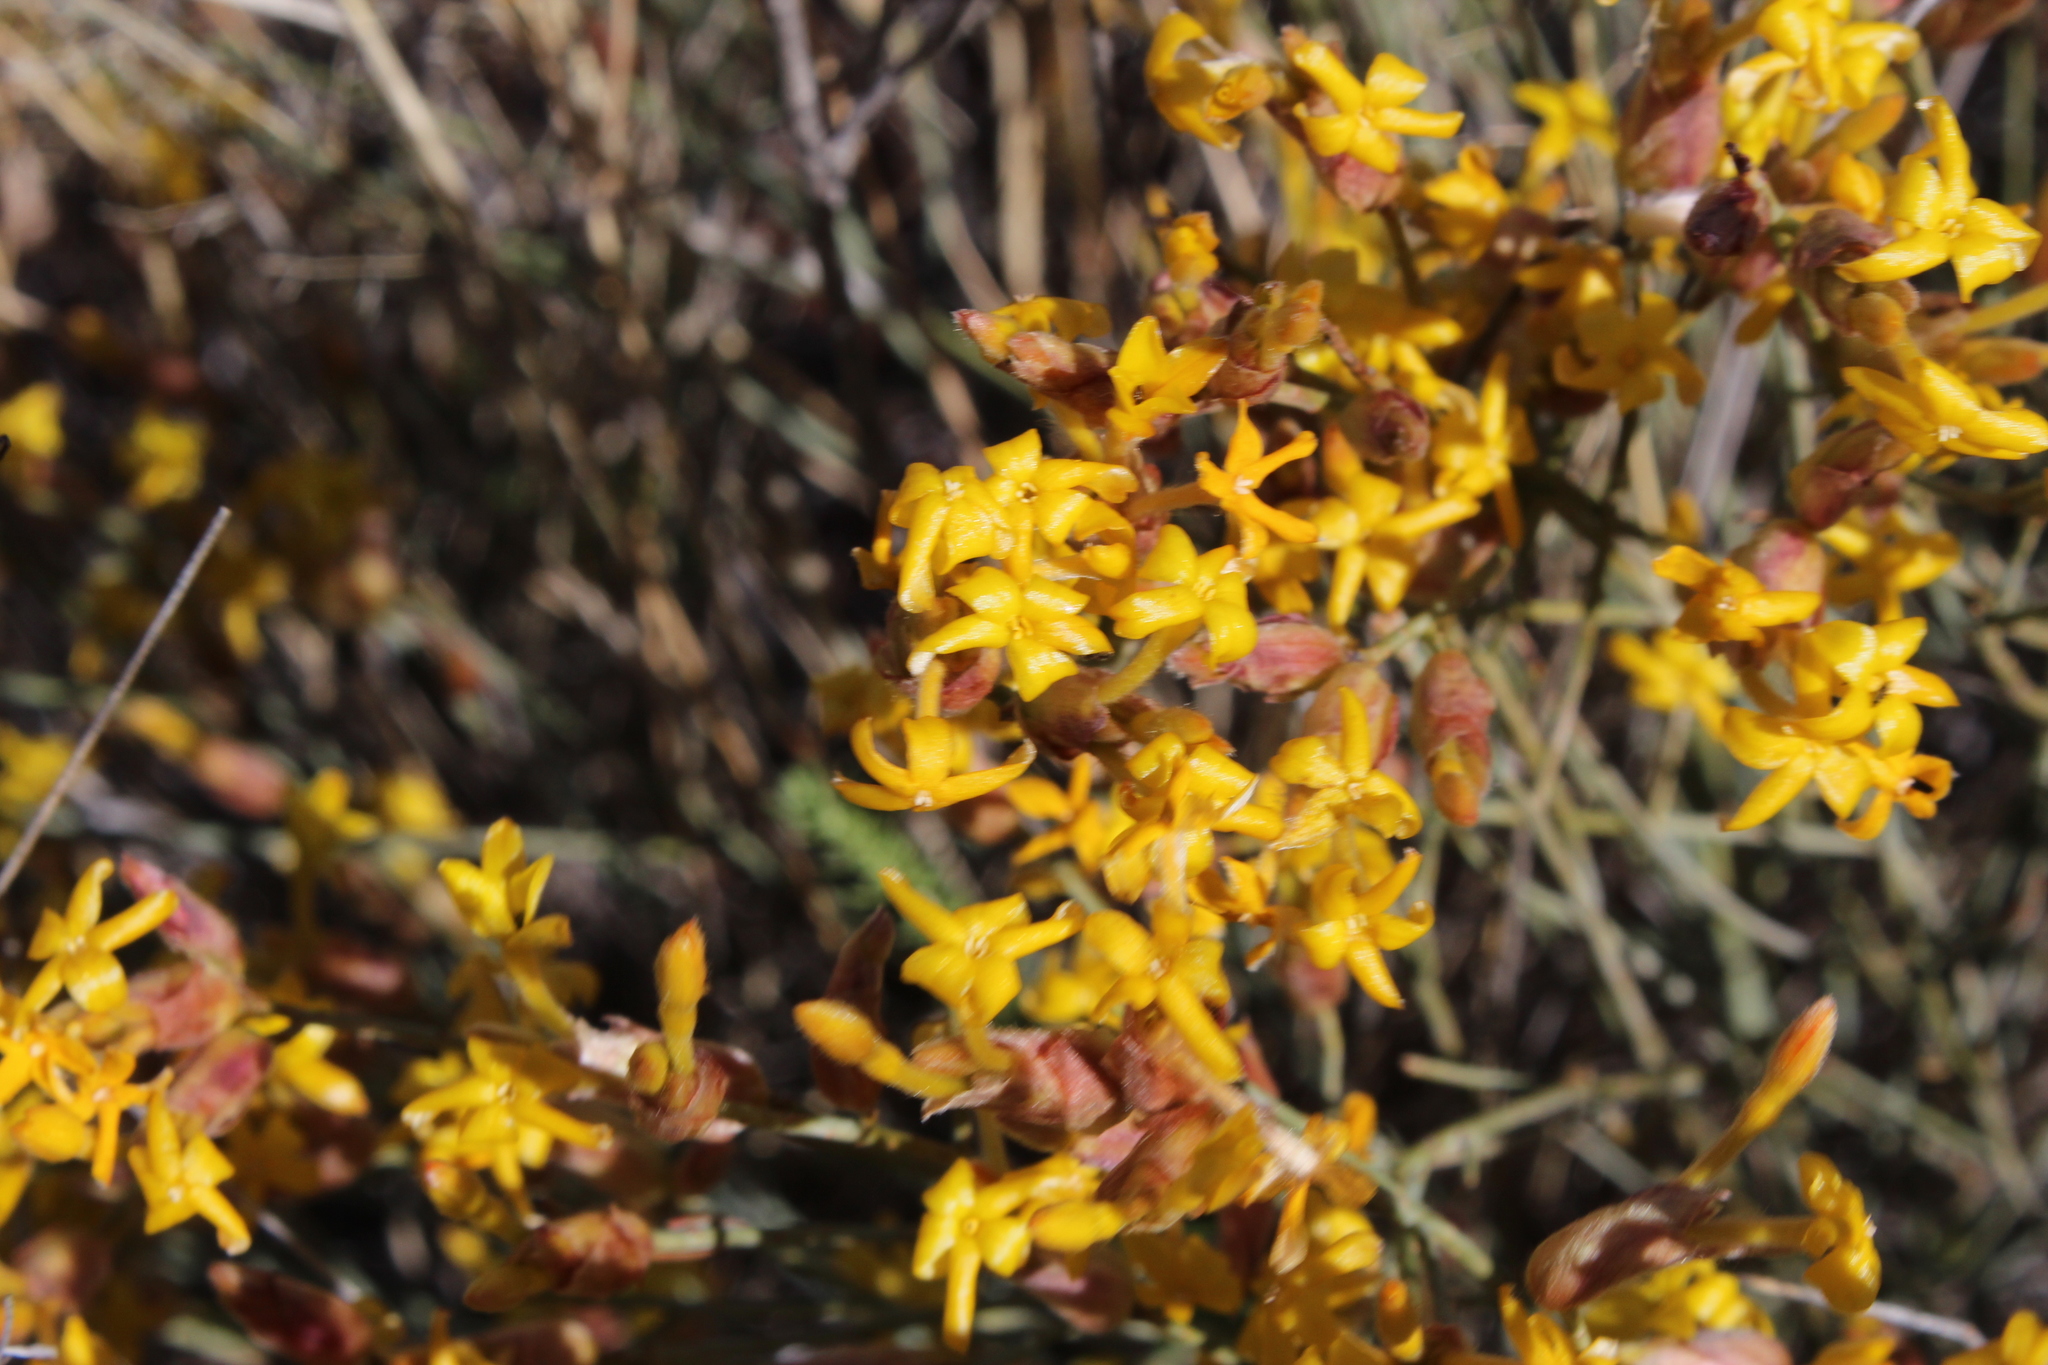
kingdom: Plantae
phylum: Tracheophyta
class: Magnoliopsida
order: Malvales
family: Thymelaeaceae
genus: Gnidia
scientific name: Gnidia polycephala
